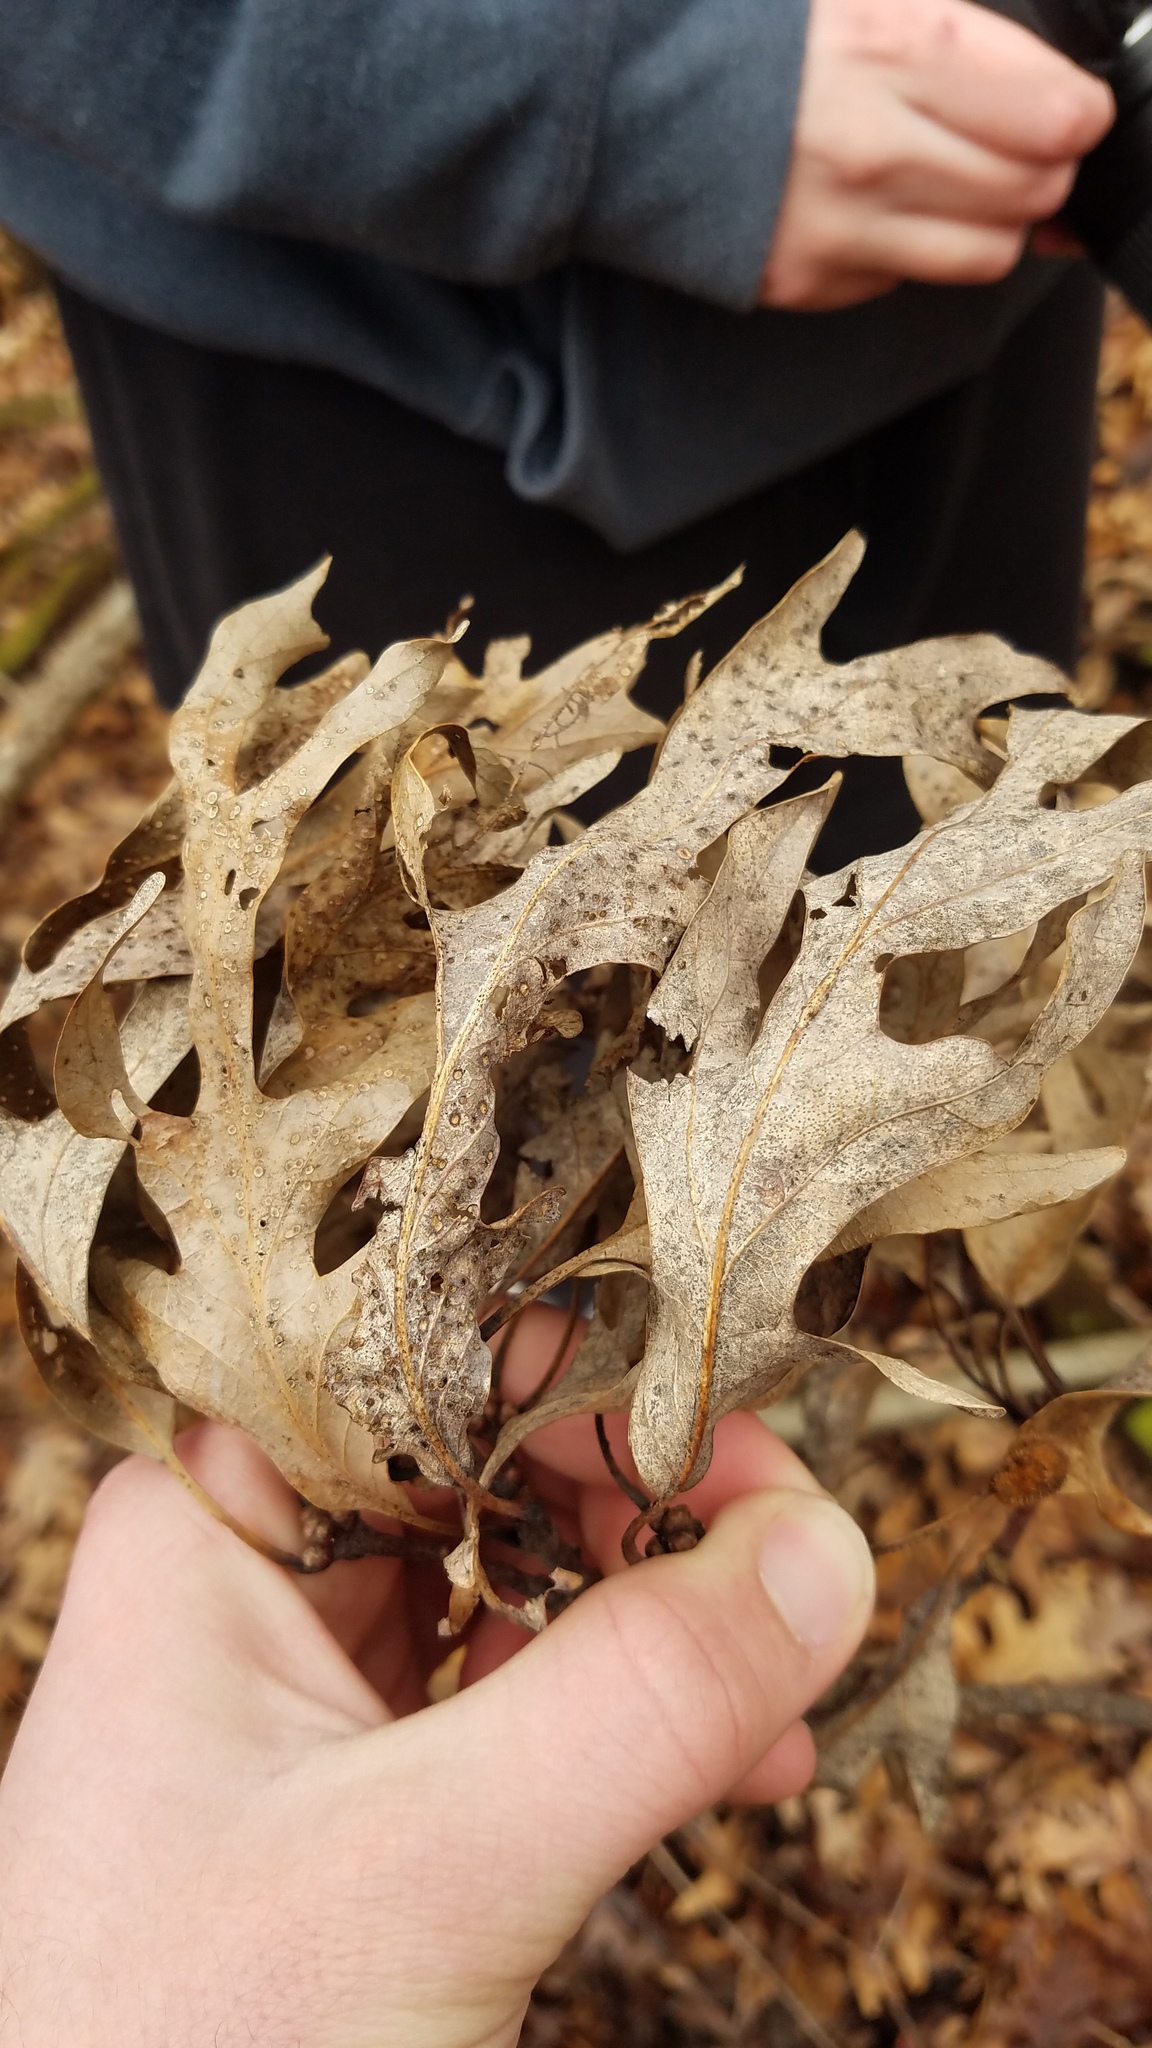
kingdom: Animalia
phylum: Arthropoda
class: Insecta
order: Hymenoptera
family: Cynipidae
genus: Neuroterus
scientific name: Neuroterus
